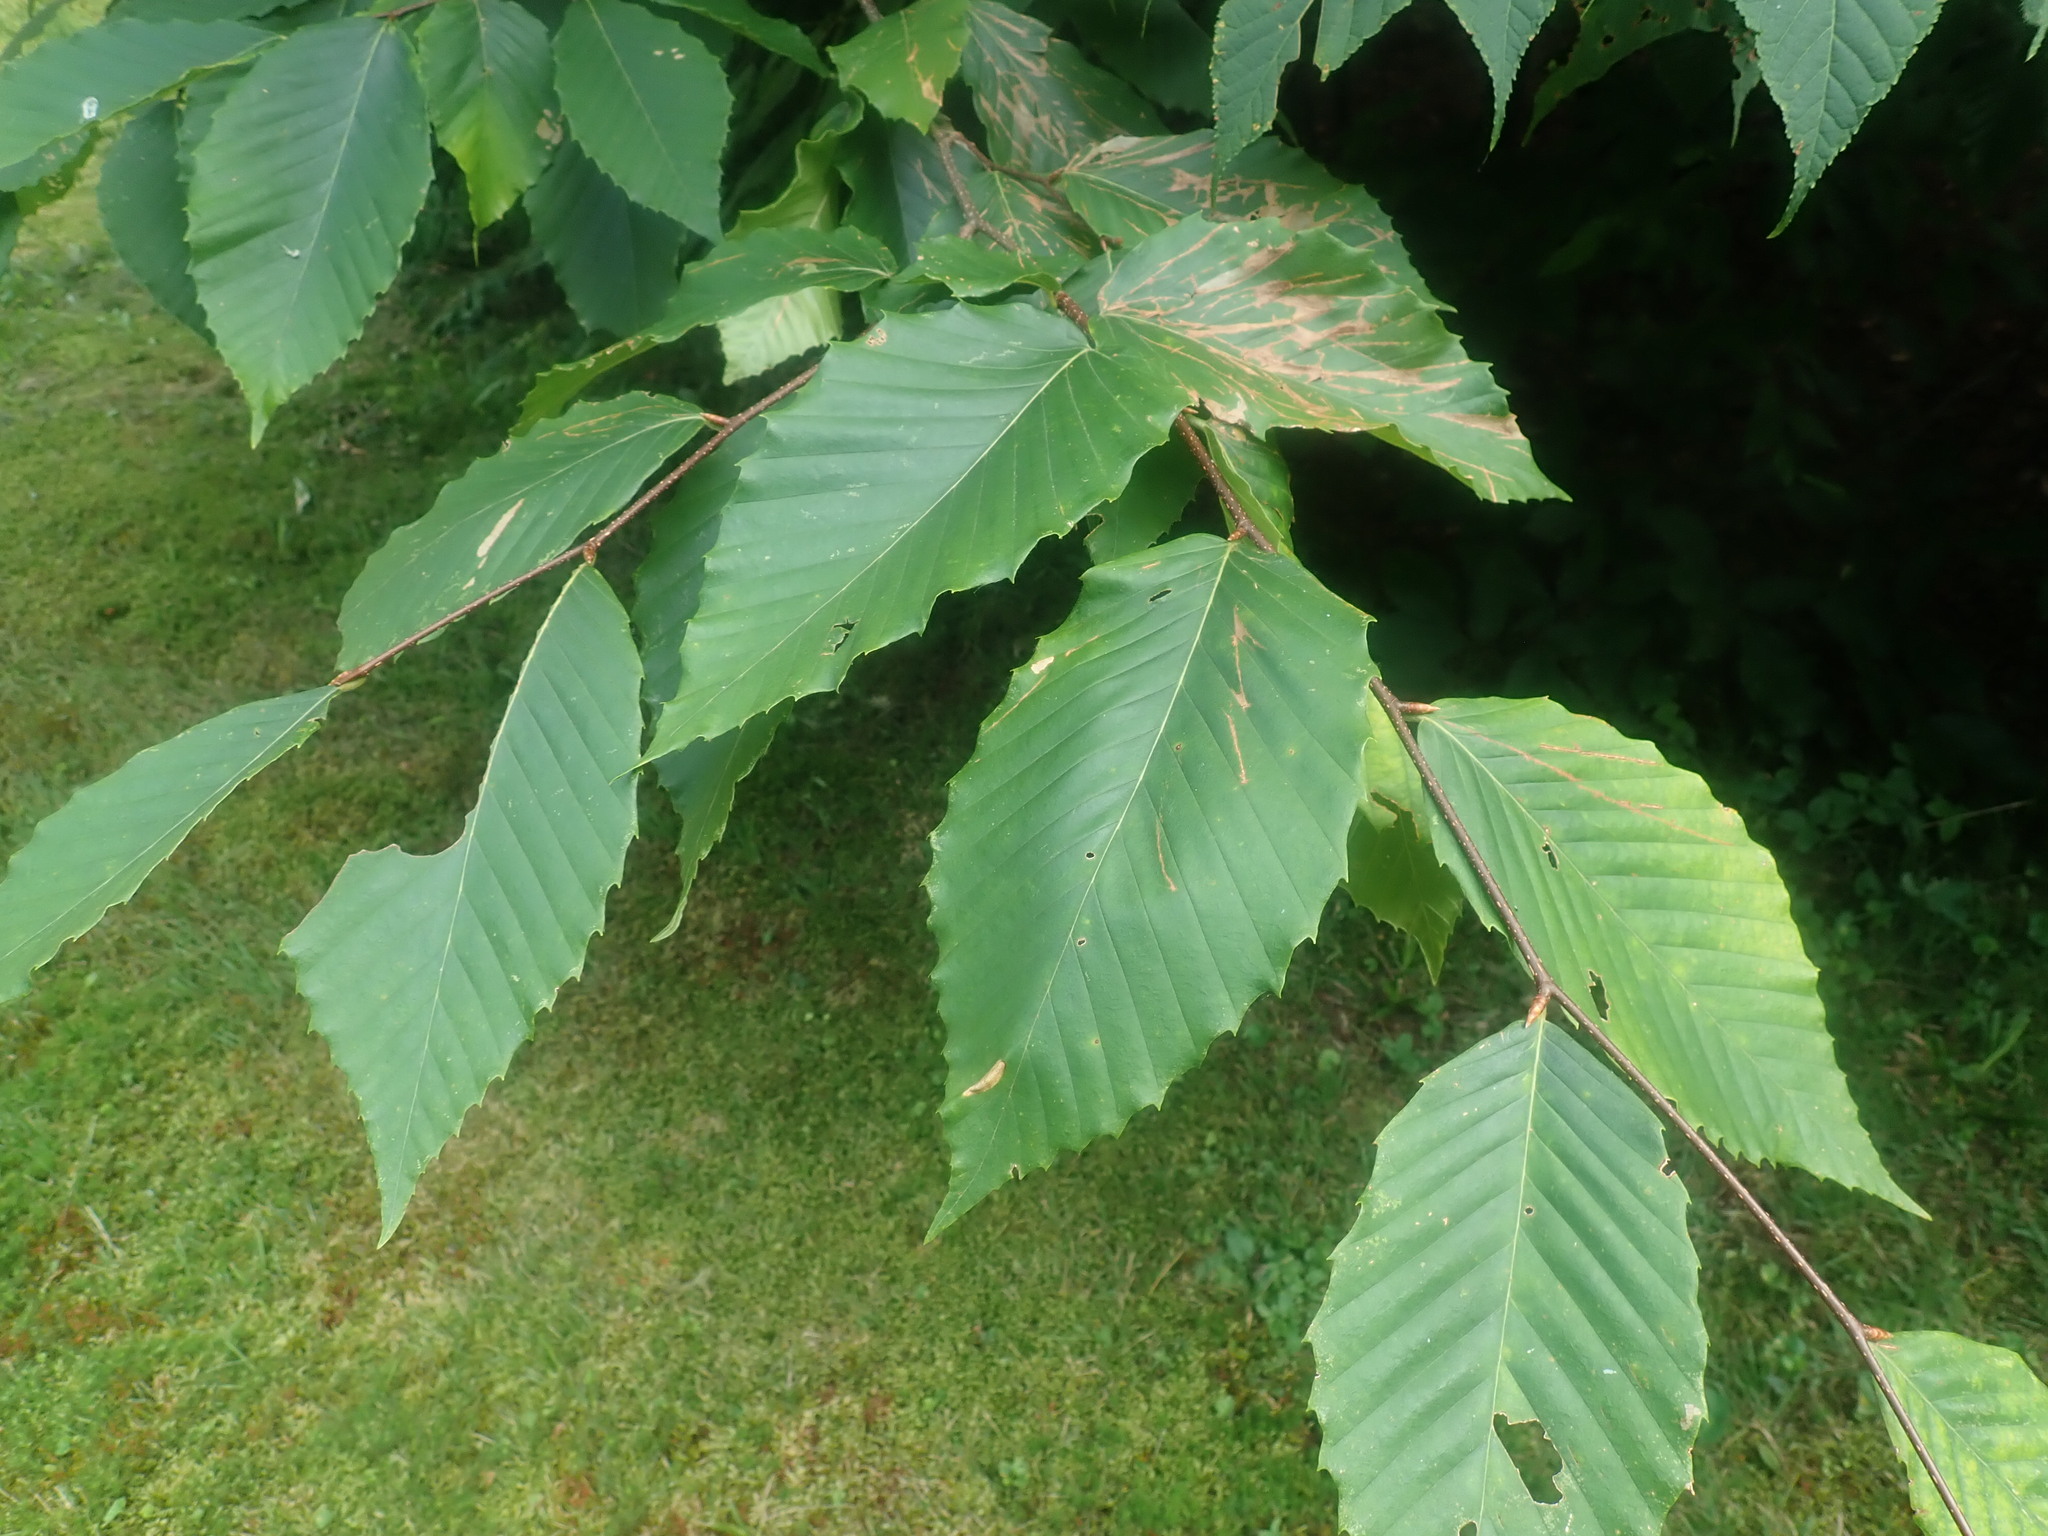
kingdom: Plantae
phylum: Tracheophyta
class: Magnoliopsida
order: Fagales
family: Fagaceae
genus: Fagus
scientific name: Fagus grandifolia
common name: American beech
